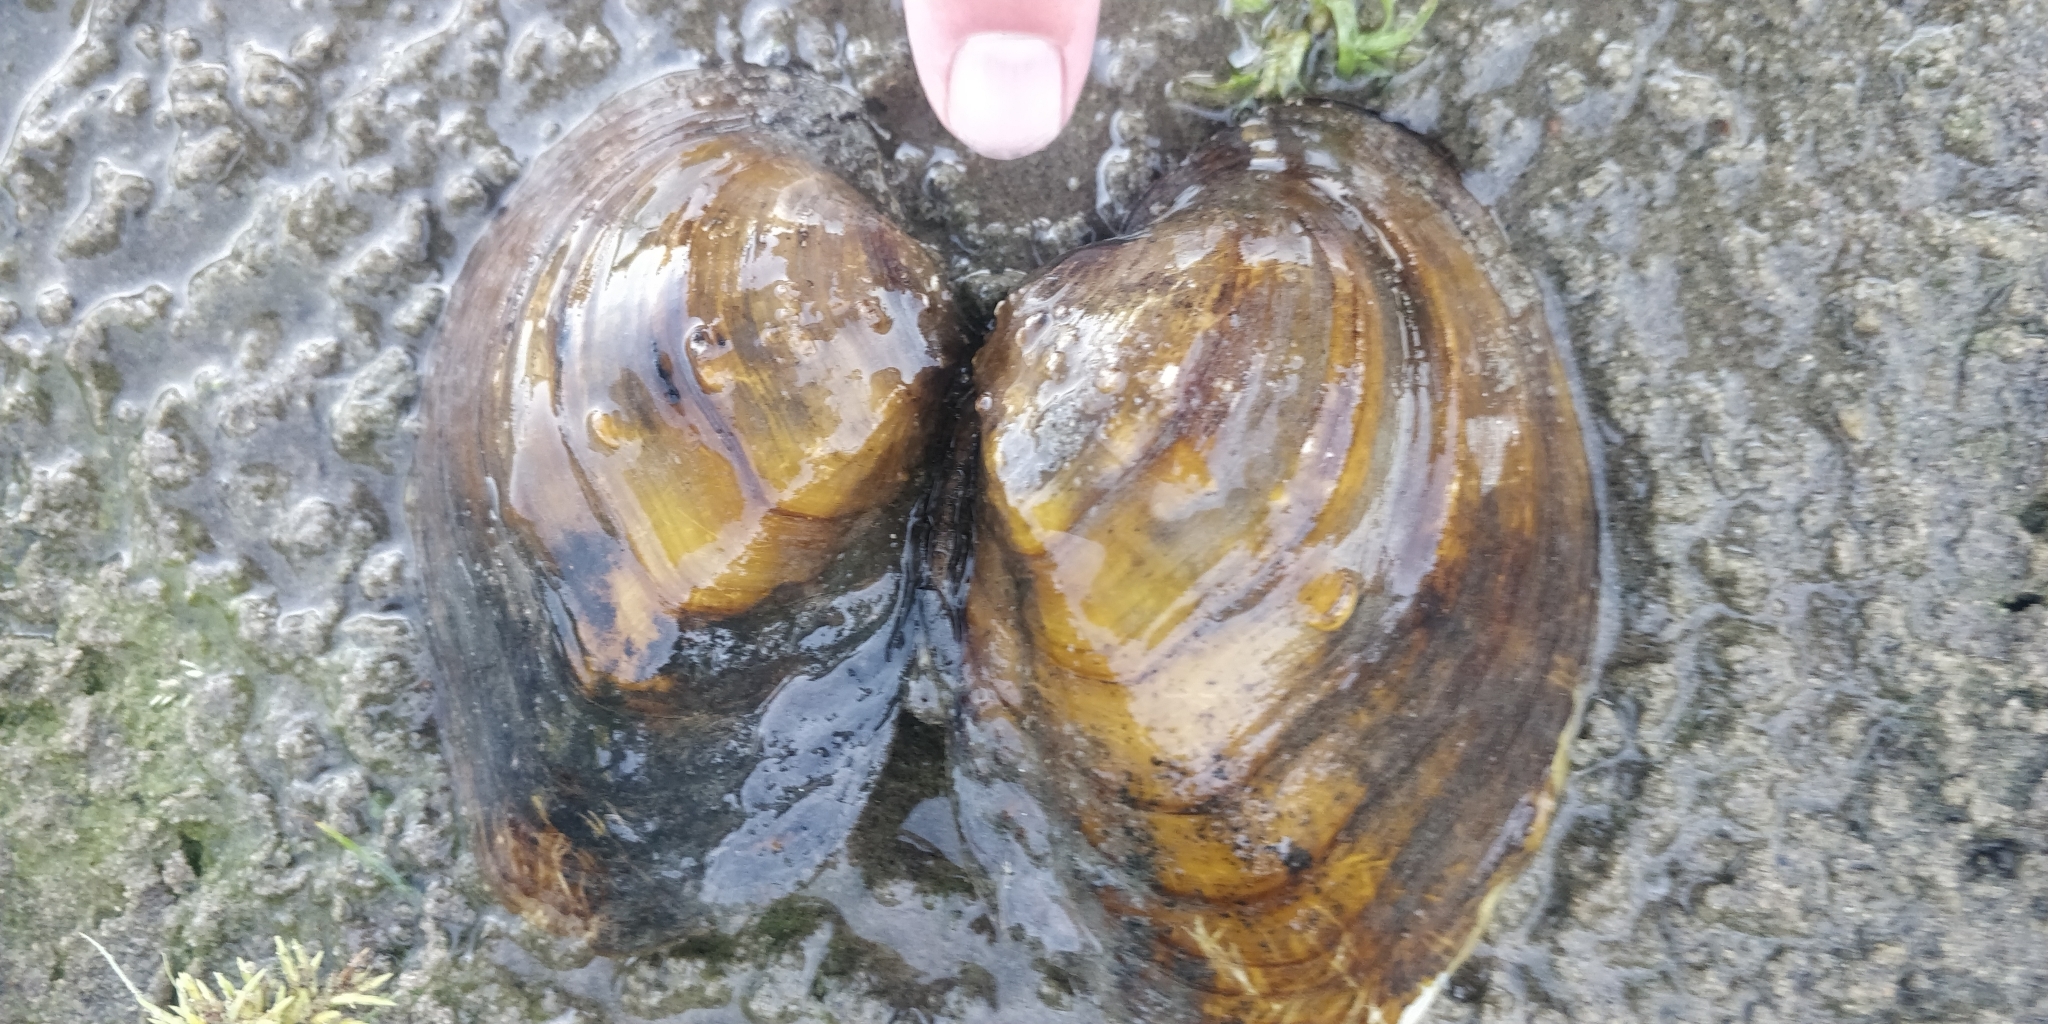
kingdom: Animalia
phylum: Mollusca
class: Bivalvia
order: Unionida
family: Unionidae
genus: Quadrula
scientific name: Quadrula quadrula
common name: Mapleleaf
